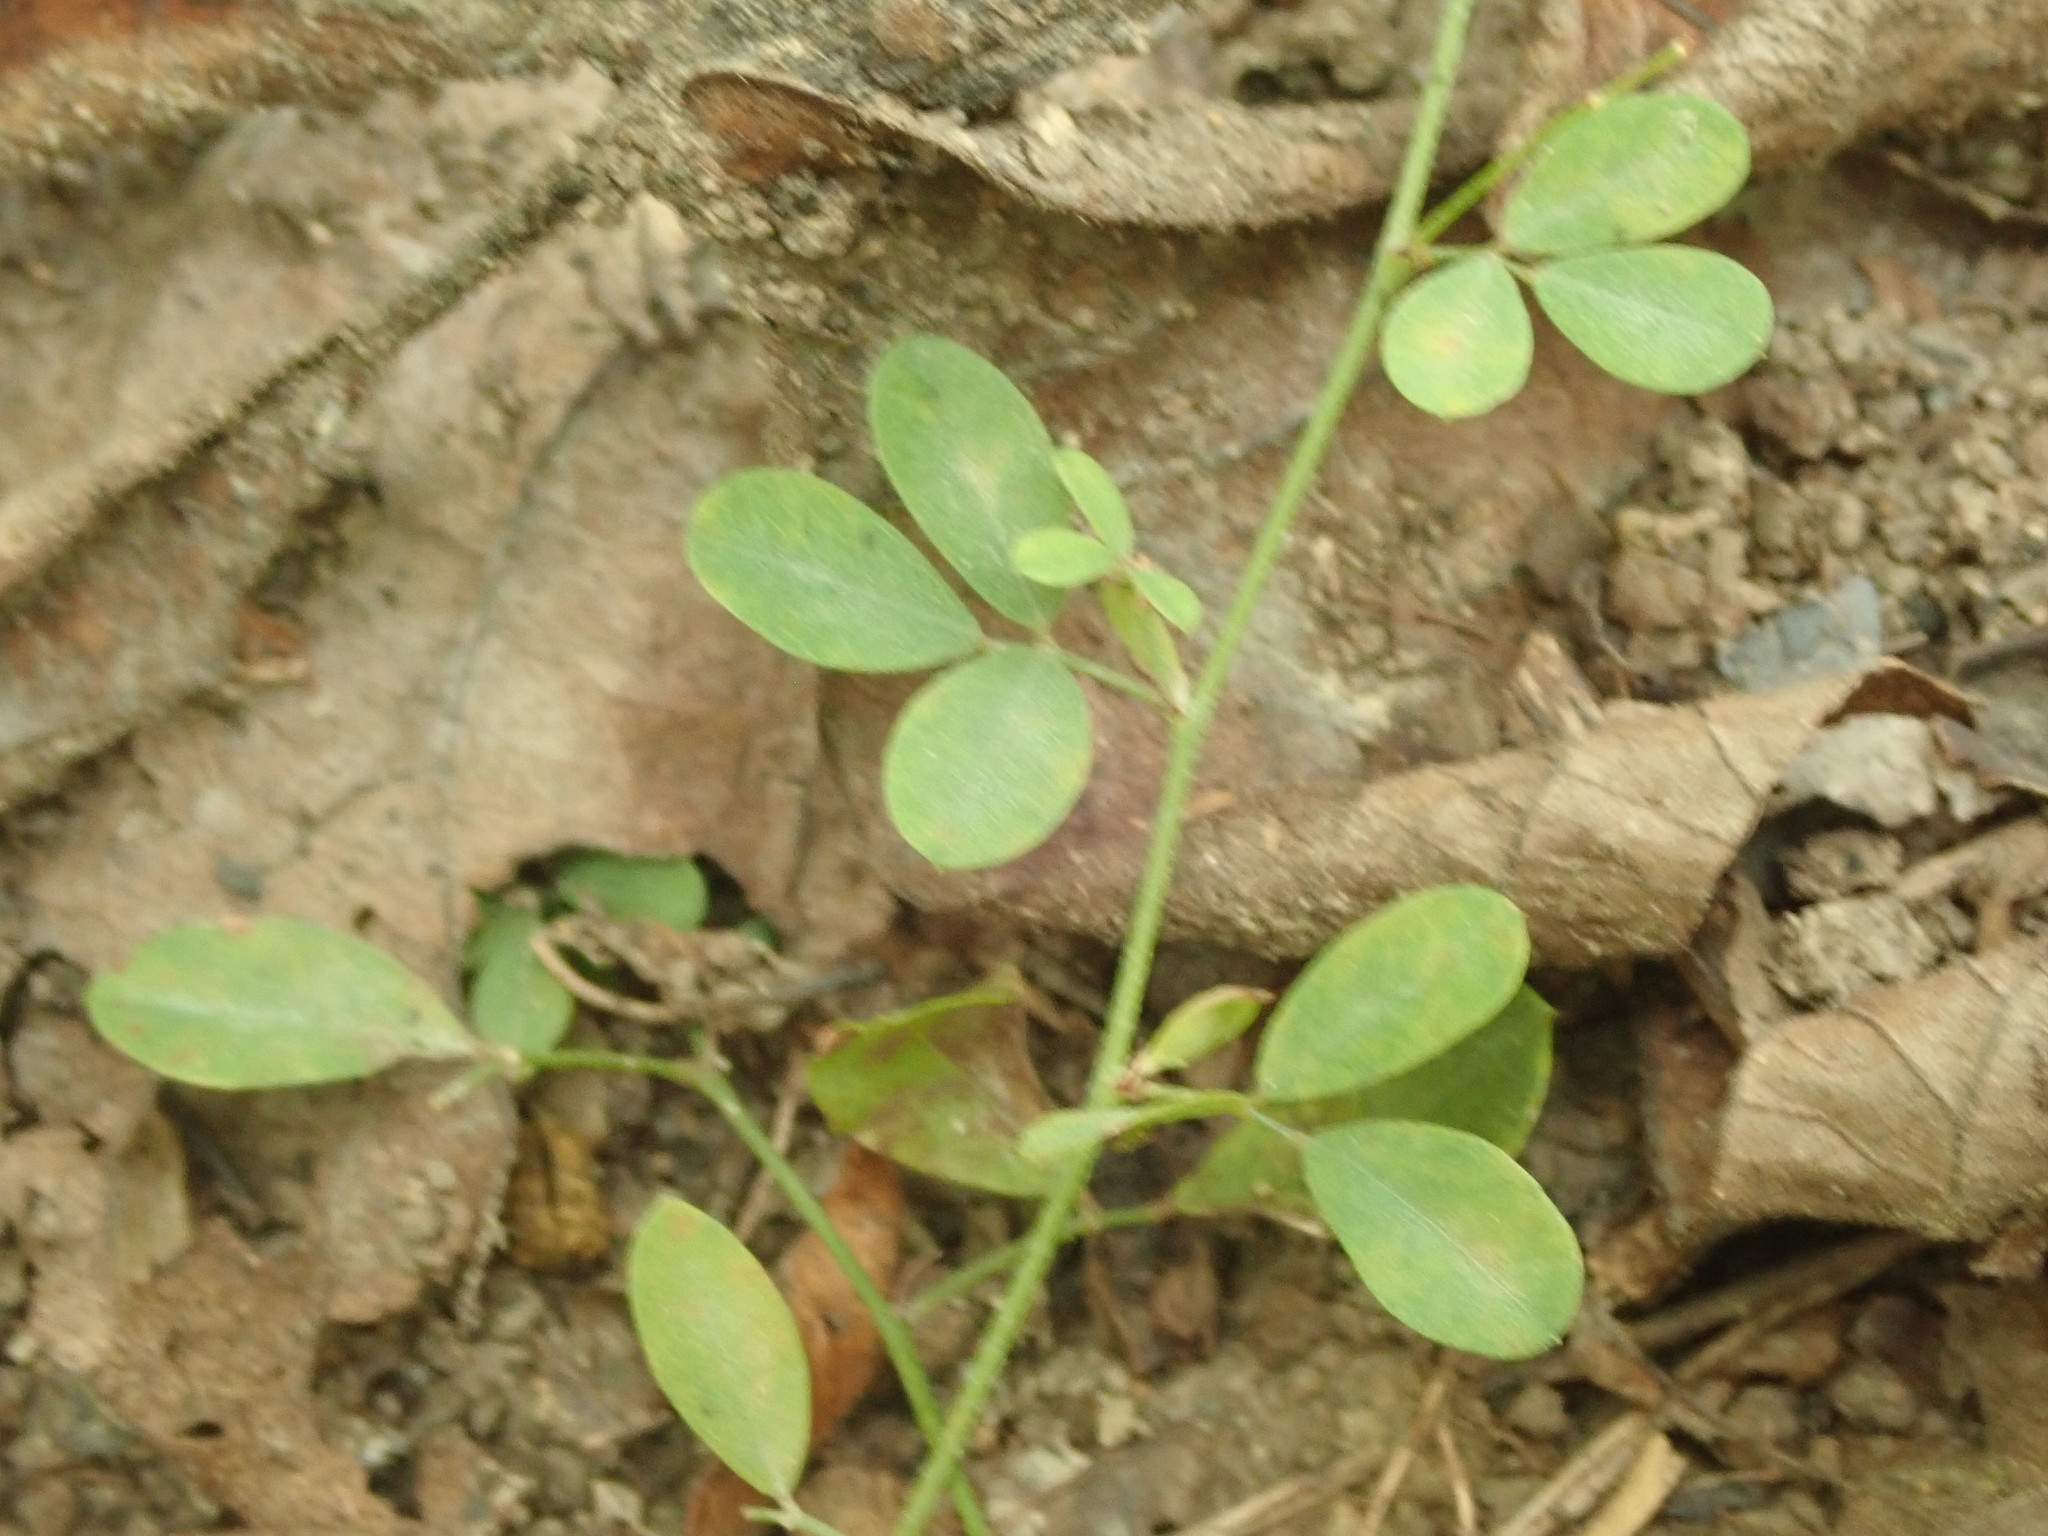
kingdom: Plantae
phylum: Tracheophyta
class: Magnoliopsida
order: Fabales
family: Fabaceae
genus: Lespedeza
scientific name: Lespedeza procumbens
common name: Downy trailing bush-clover
